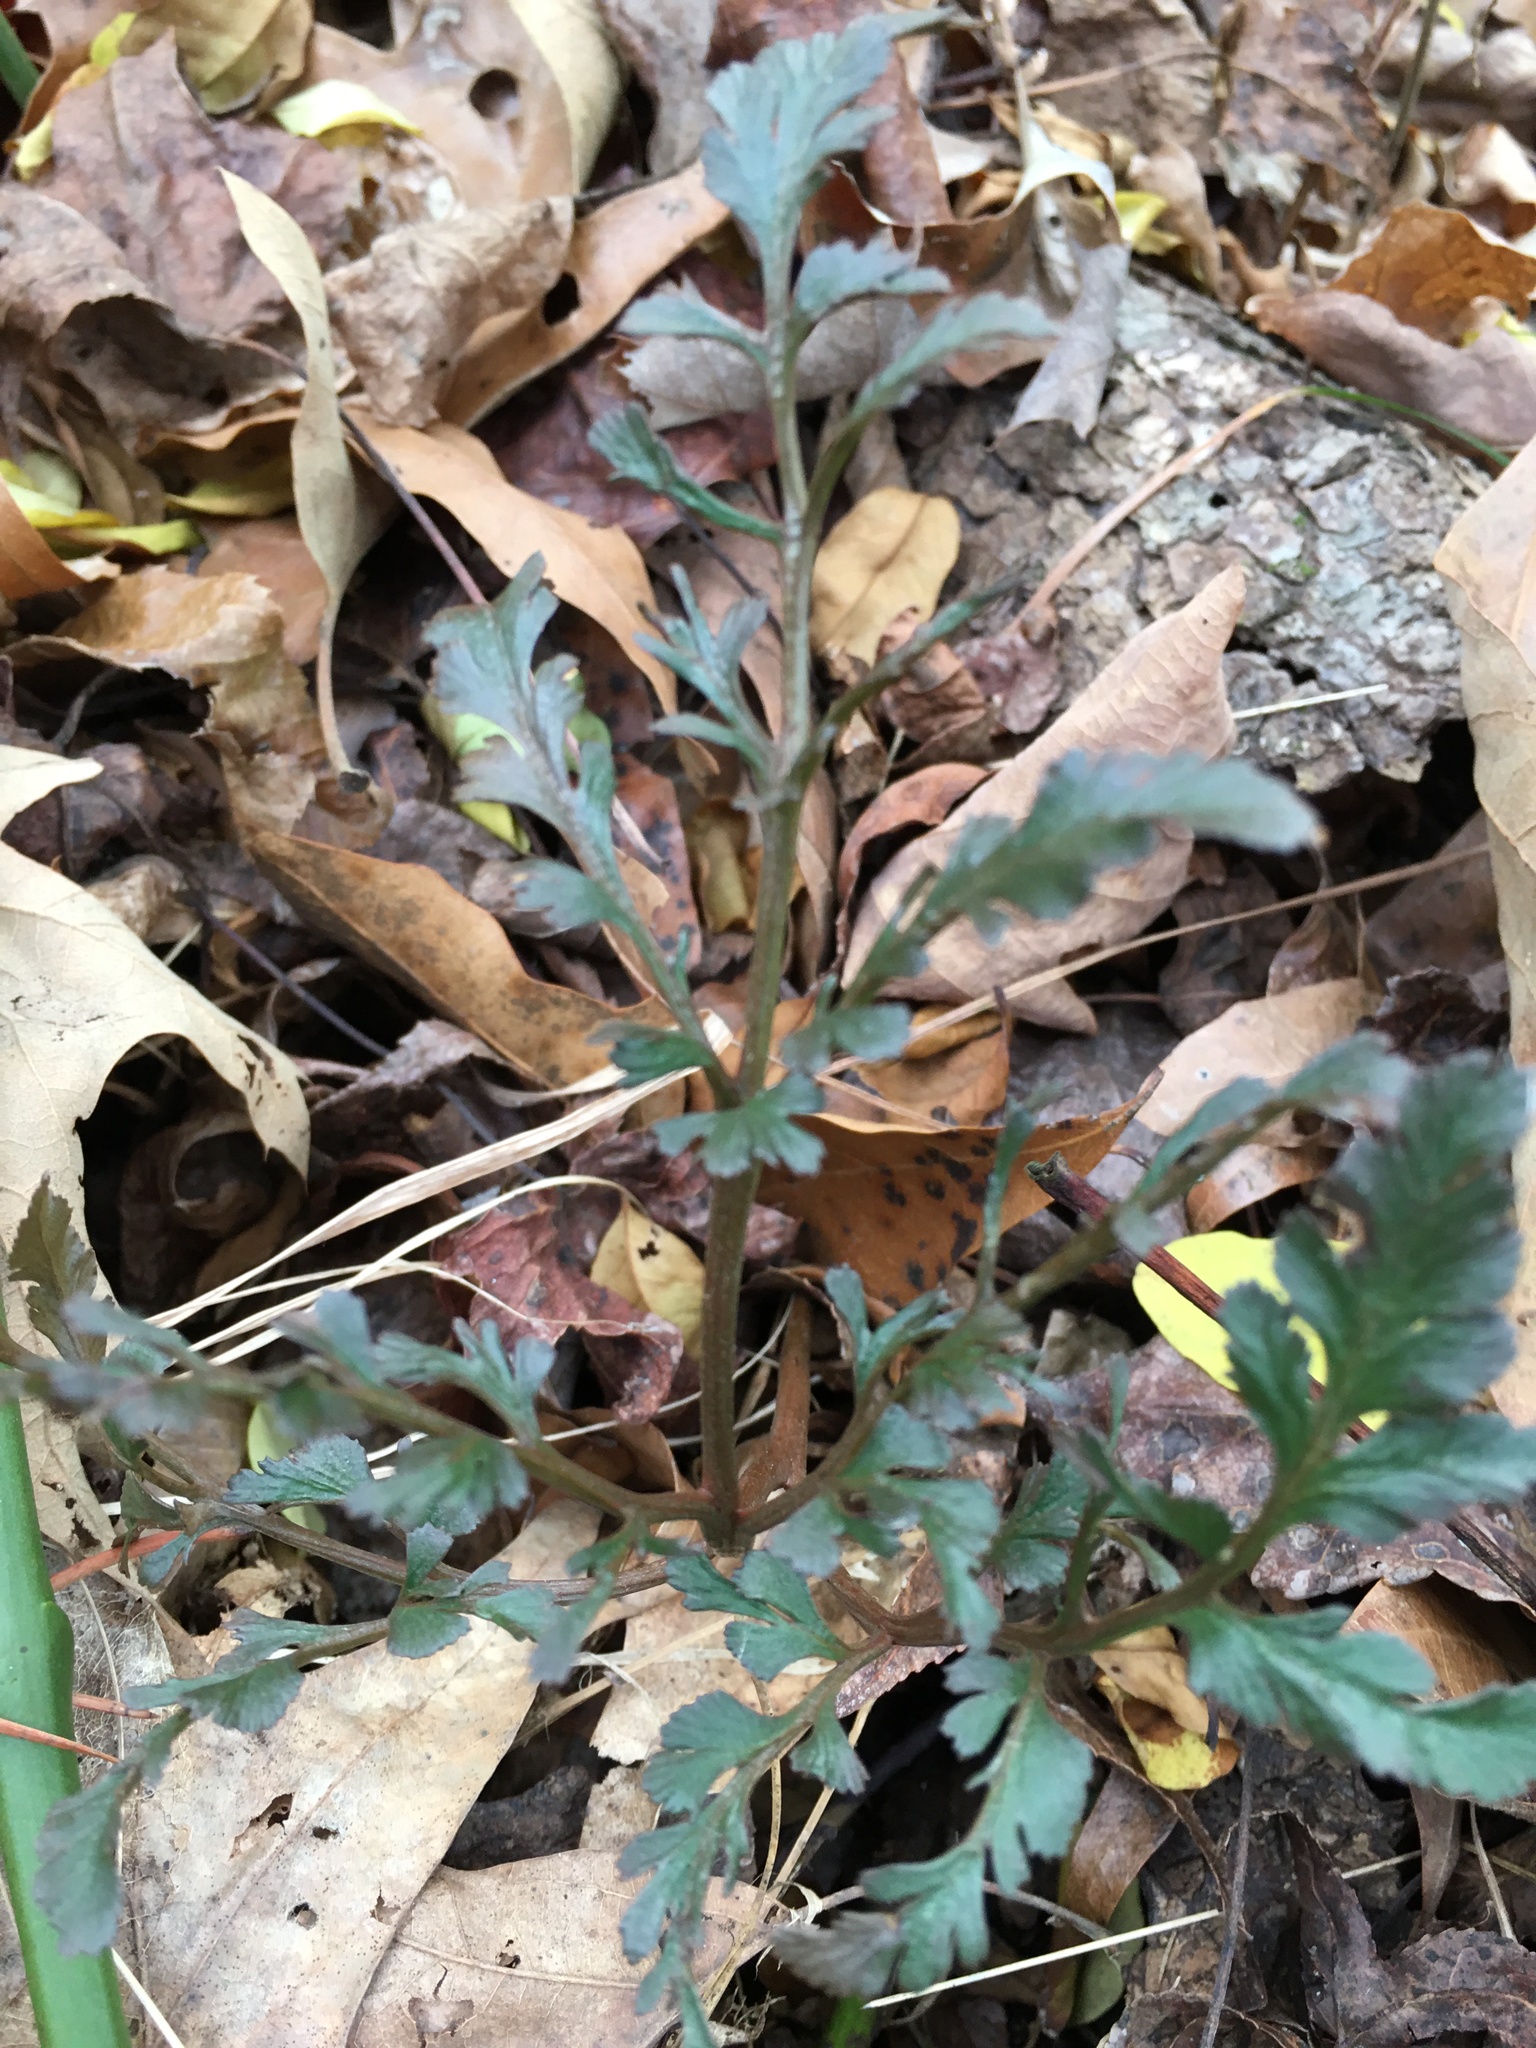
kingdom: Plantae
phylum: Tracheophyta
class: Polypodiopsida
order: Ophioglossales
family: Ophioglossaceae
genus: Sceptridium
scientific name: Sceptridium dissectum
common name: Cut-leaved grapefern
